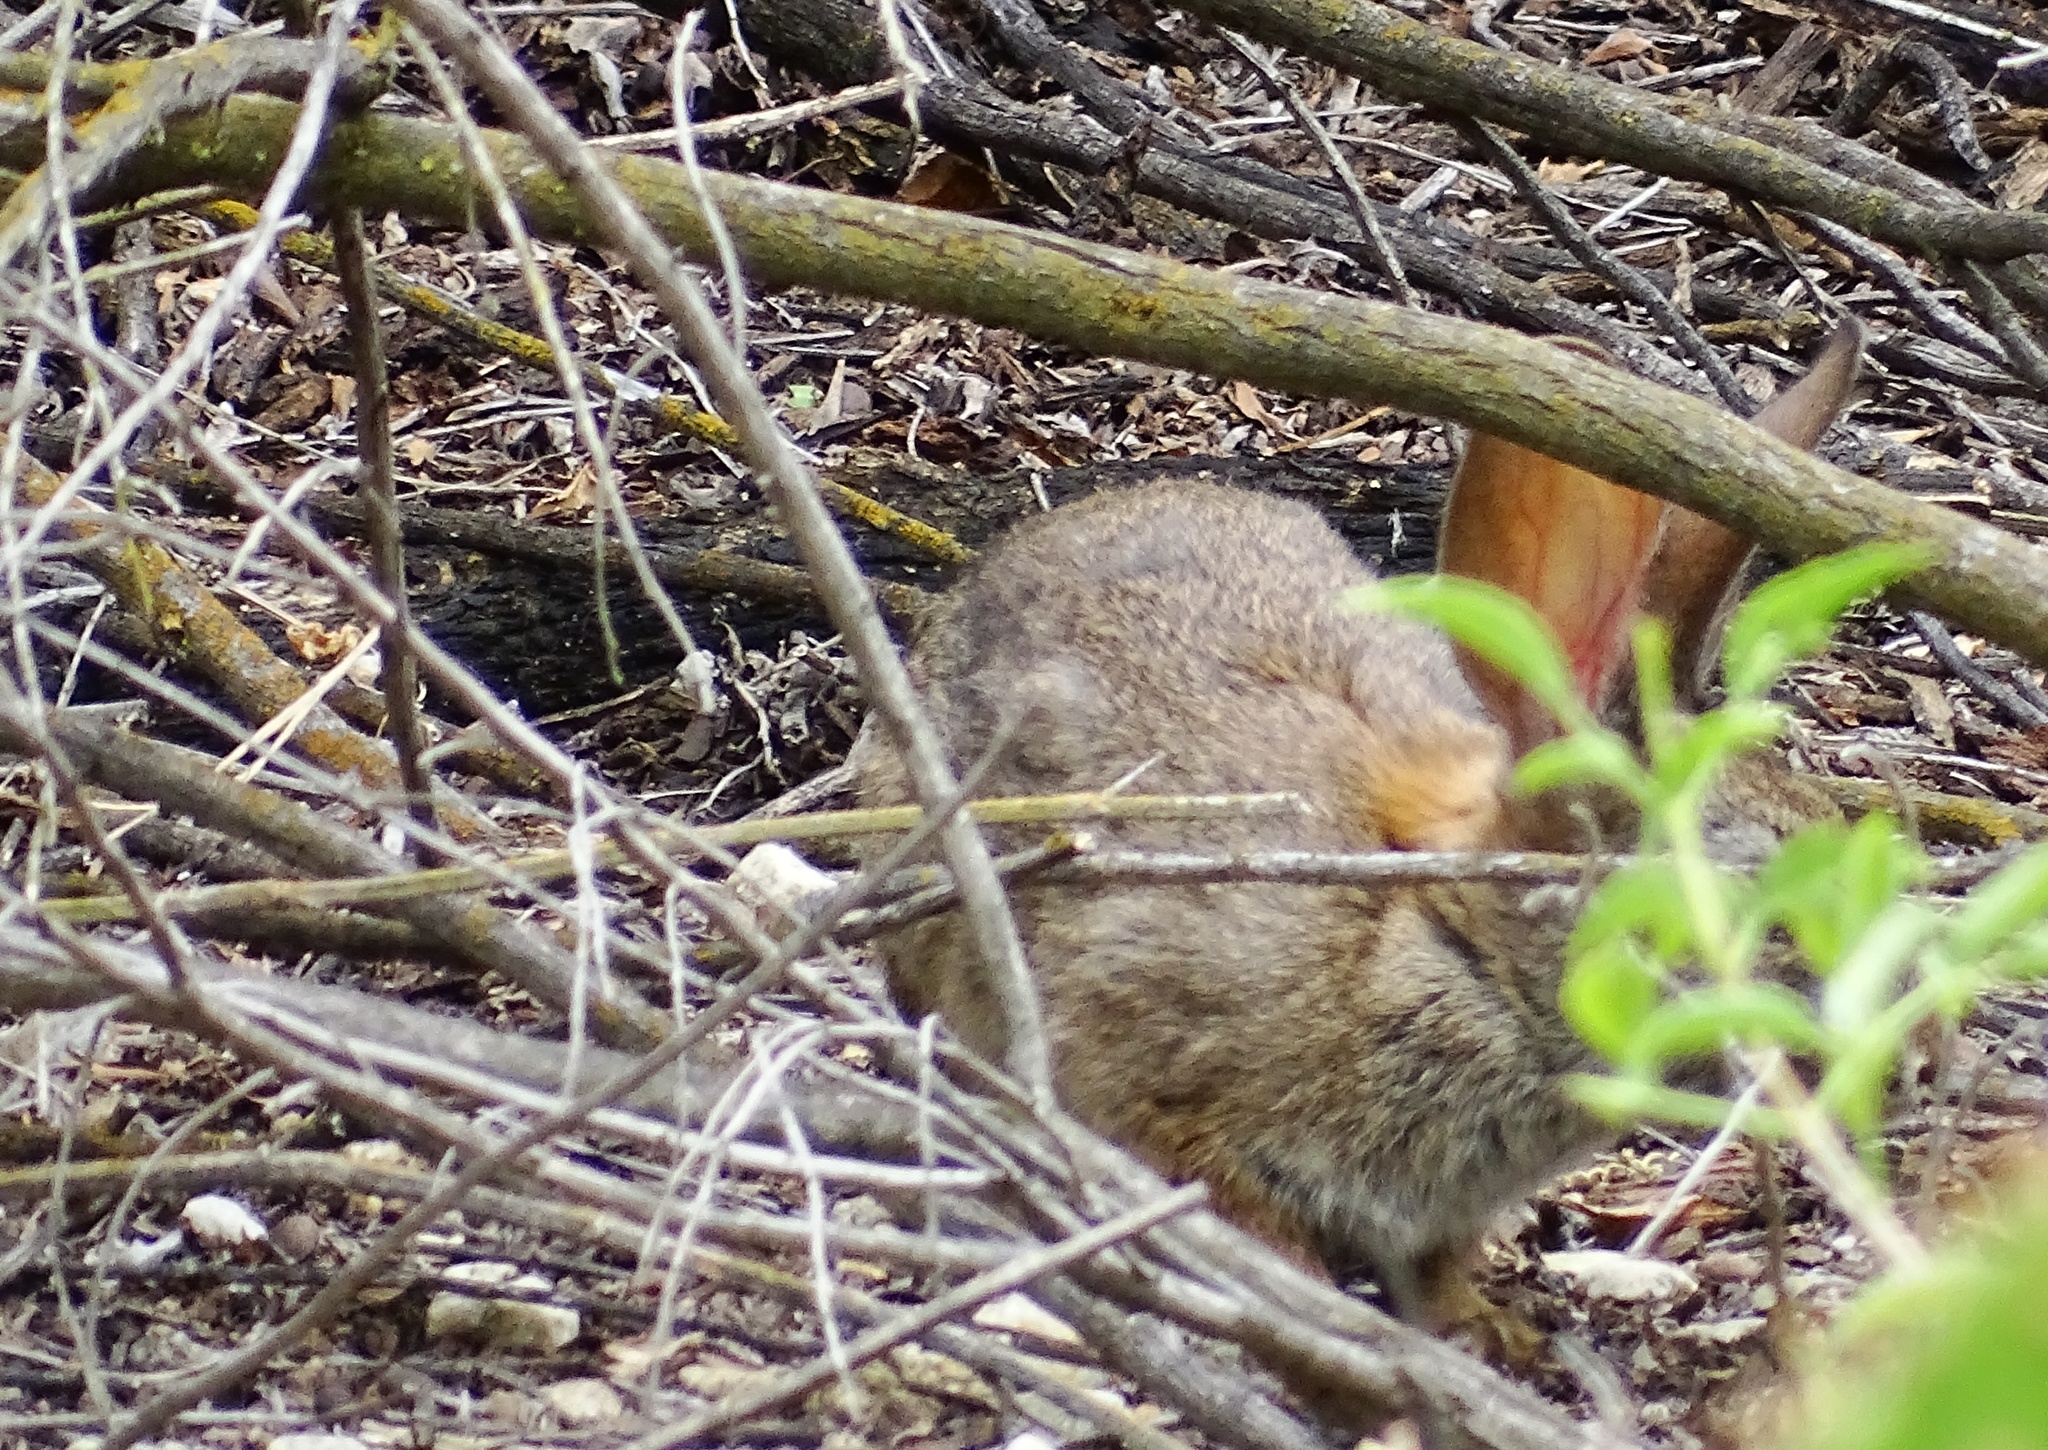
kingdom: Animalia
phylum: Chordata
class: Mammalia
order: Lagomorpha
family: Leporidae
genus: Sylvilagus
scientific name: Sylvilagus audubonii
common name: Desert cottontail
